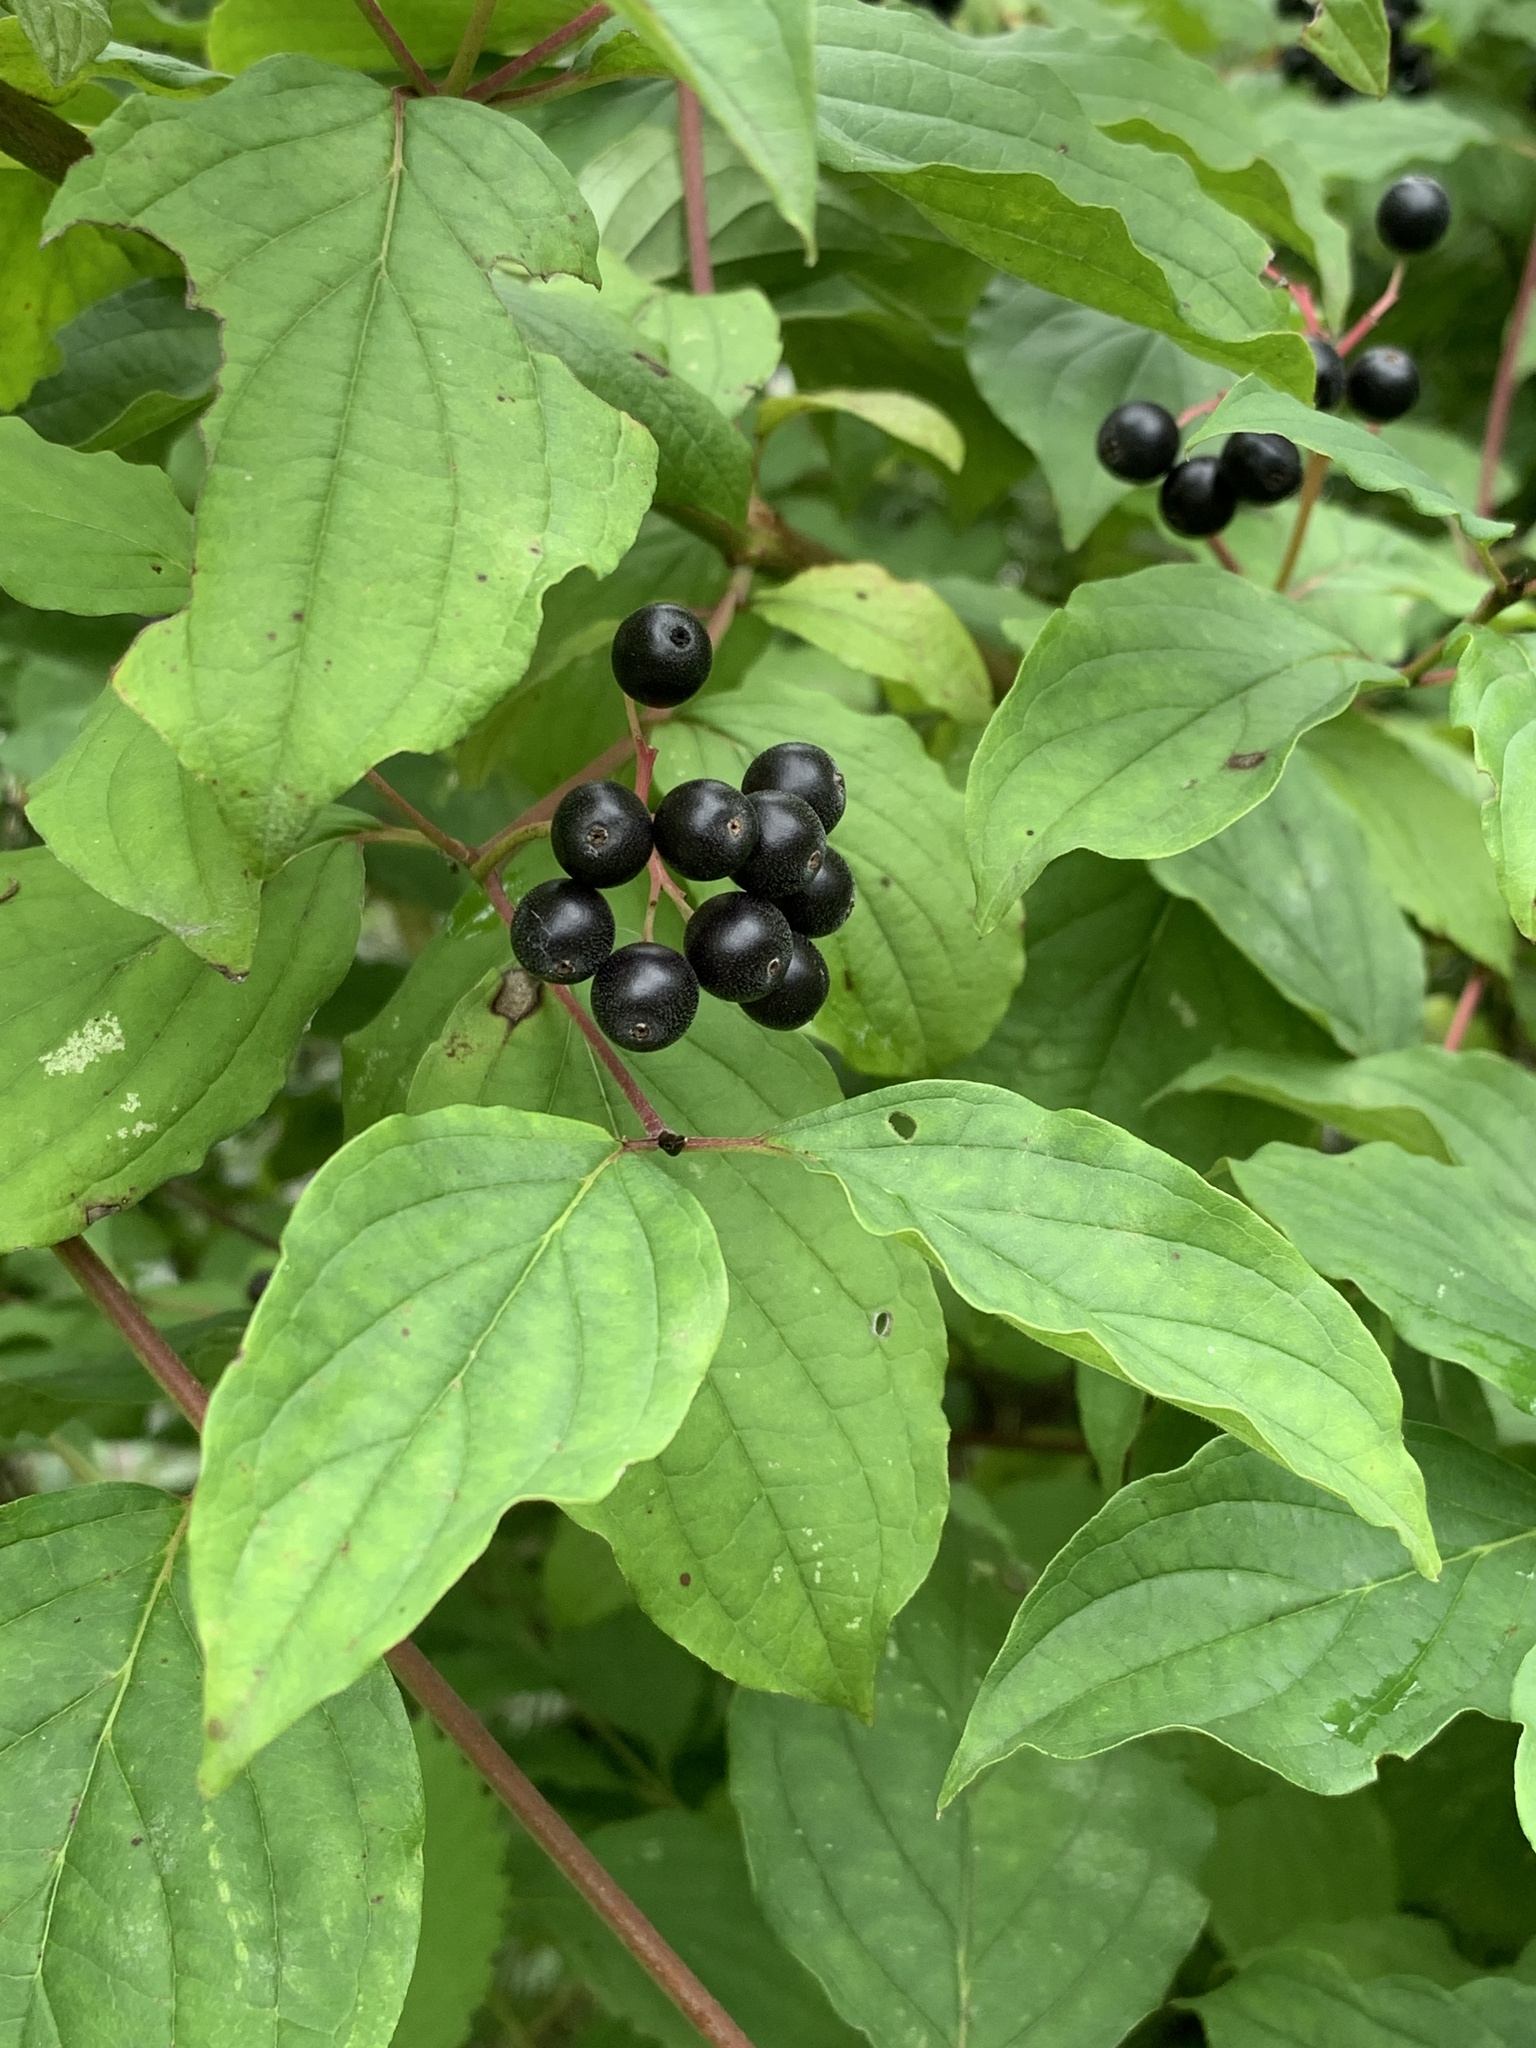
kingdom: Plantae
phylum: Tracheophyta
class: Magnoliopsida
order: Cornales
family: Cornaceae
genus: Cornus
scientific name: Cornus sanguinea
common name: Dogwood
